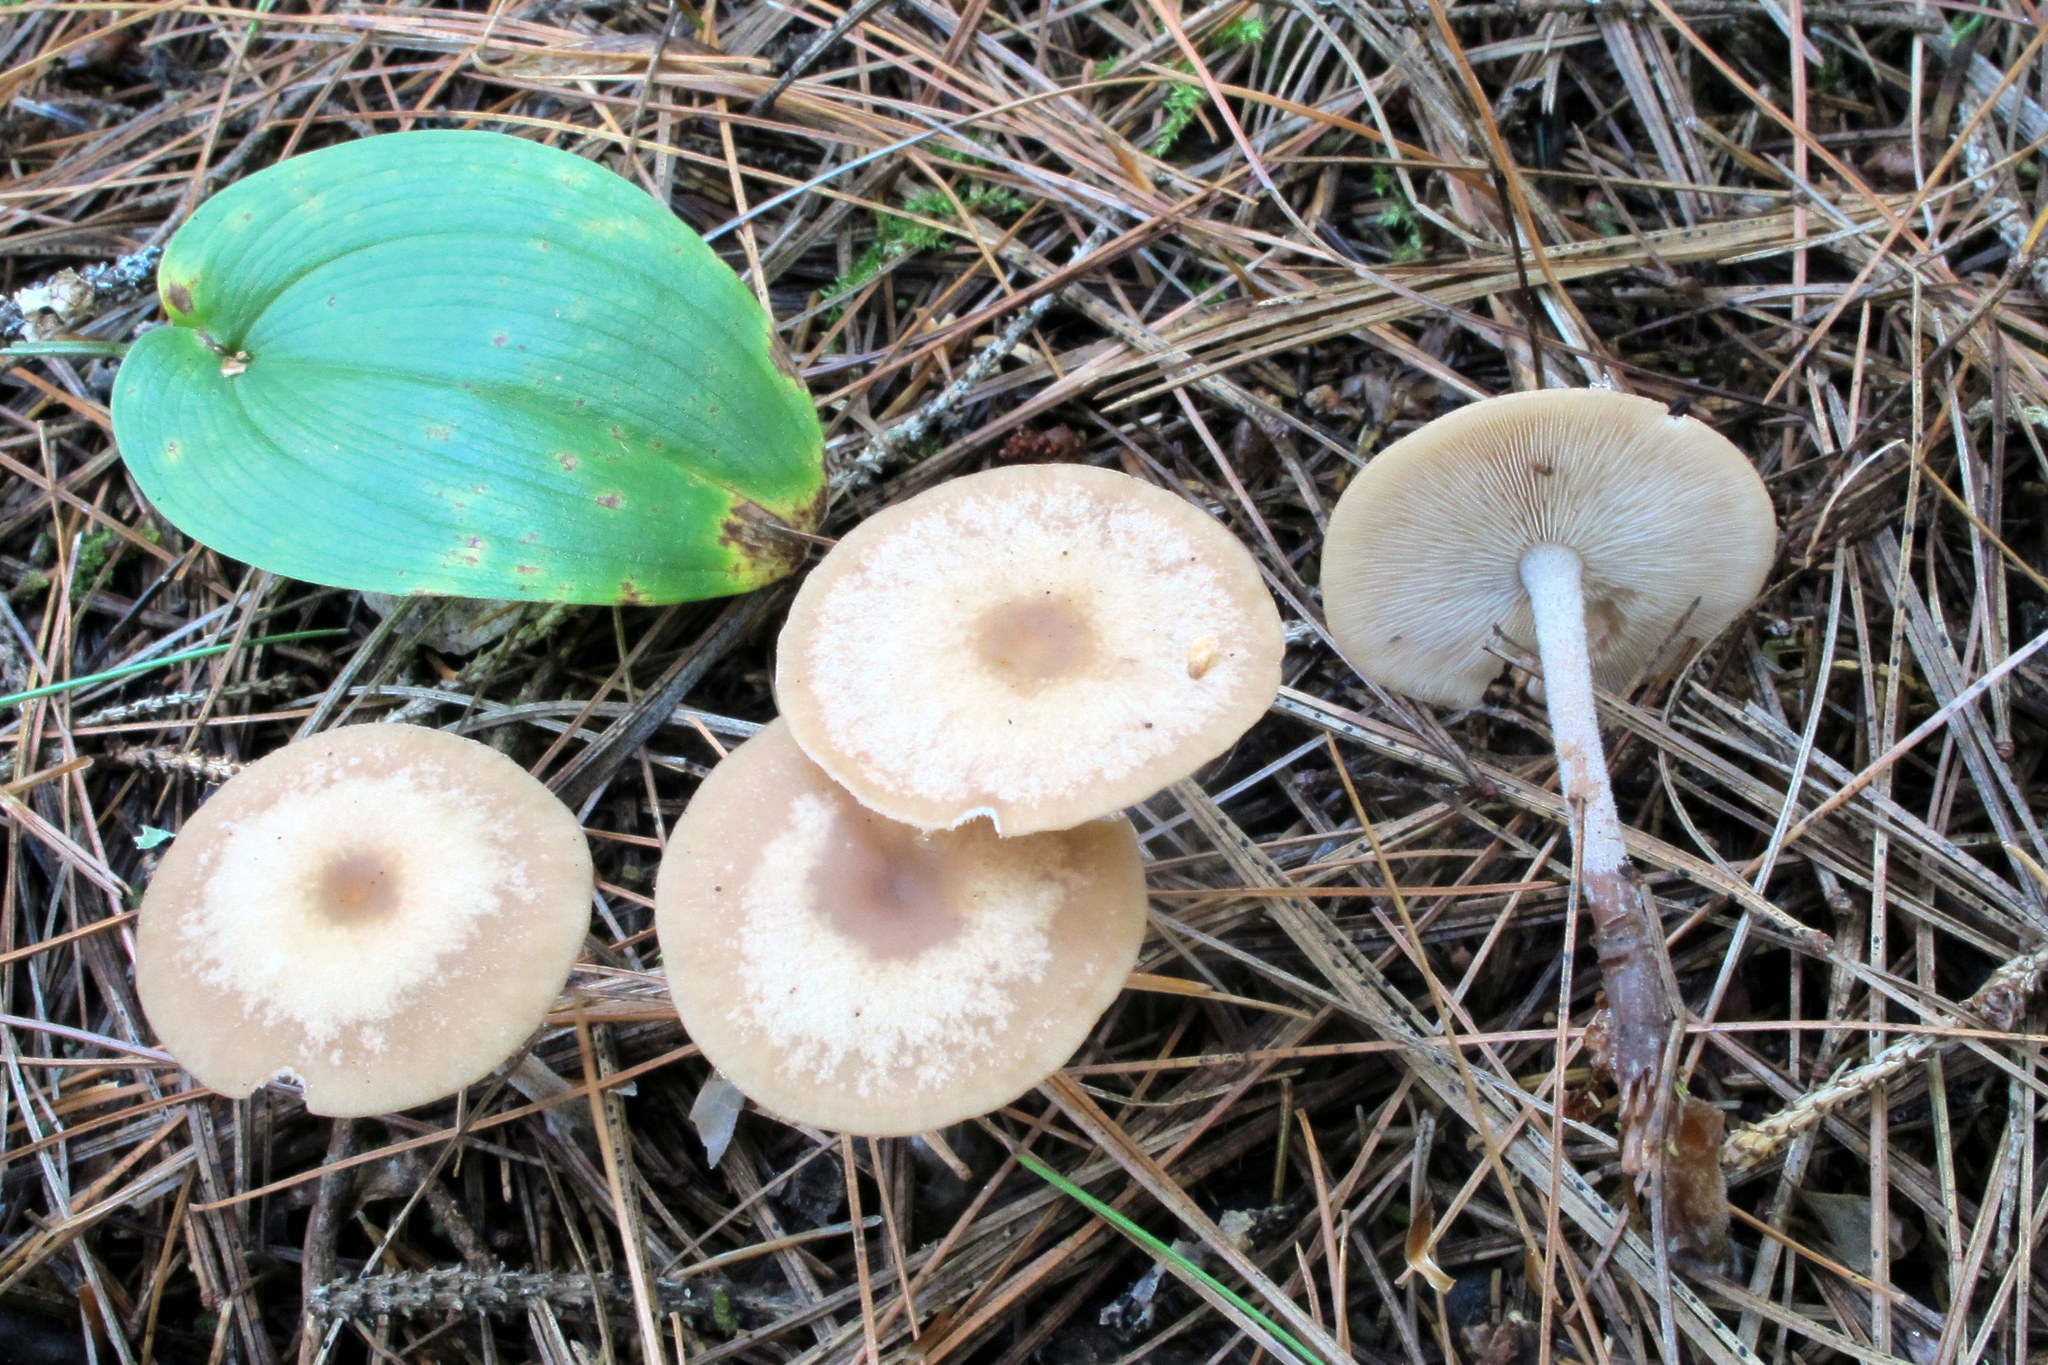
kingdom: Fungi
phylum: Basidiomycota
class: Agaricomycetes
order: Agaricales
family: Omphalotaceae
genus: Collybiopsis
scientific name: Collybiopsis confluens
